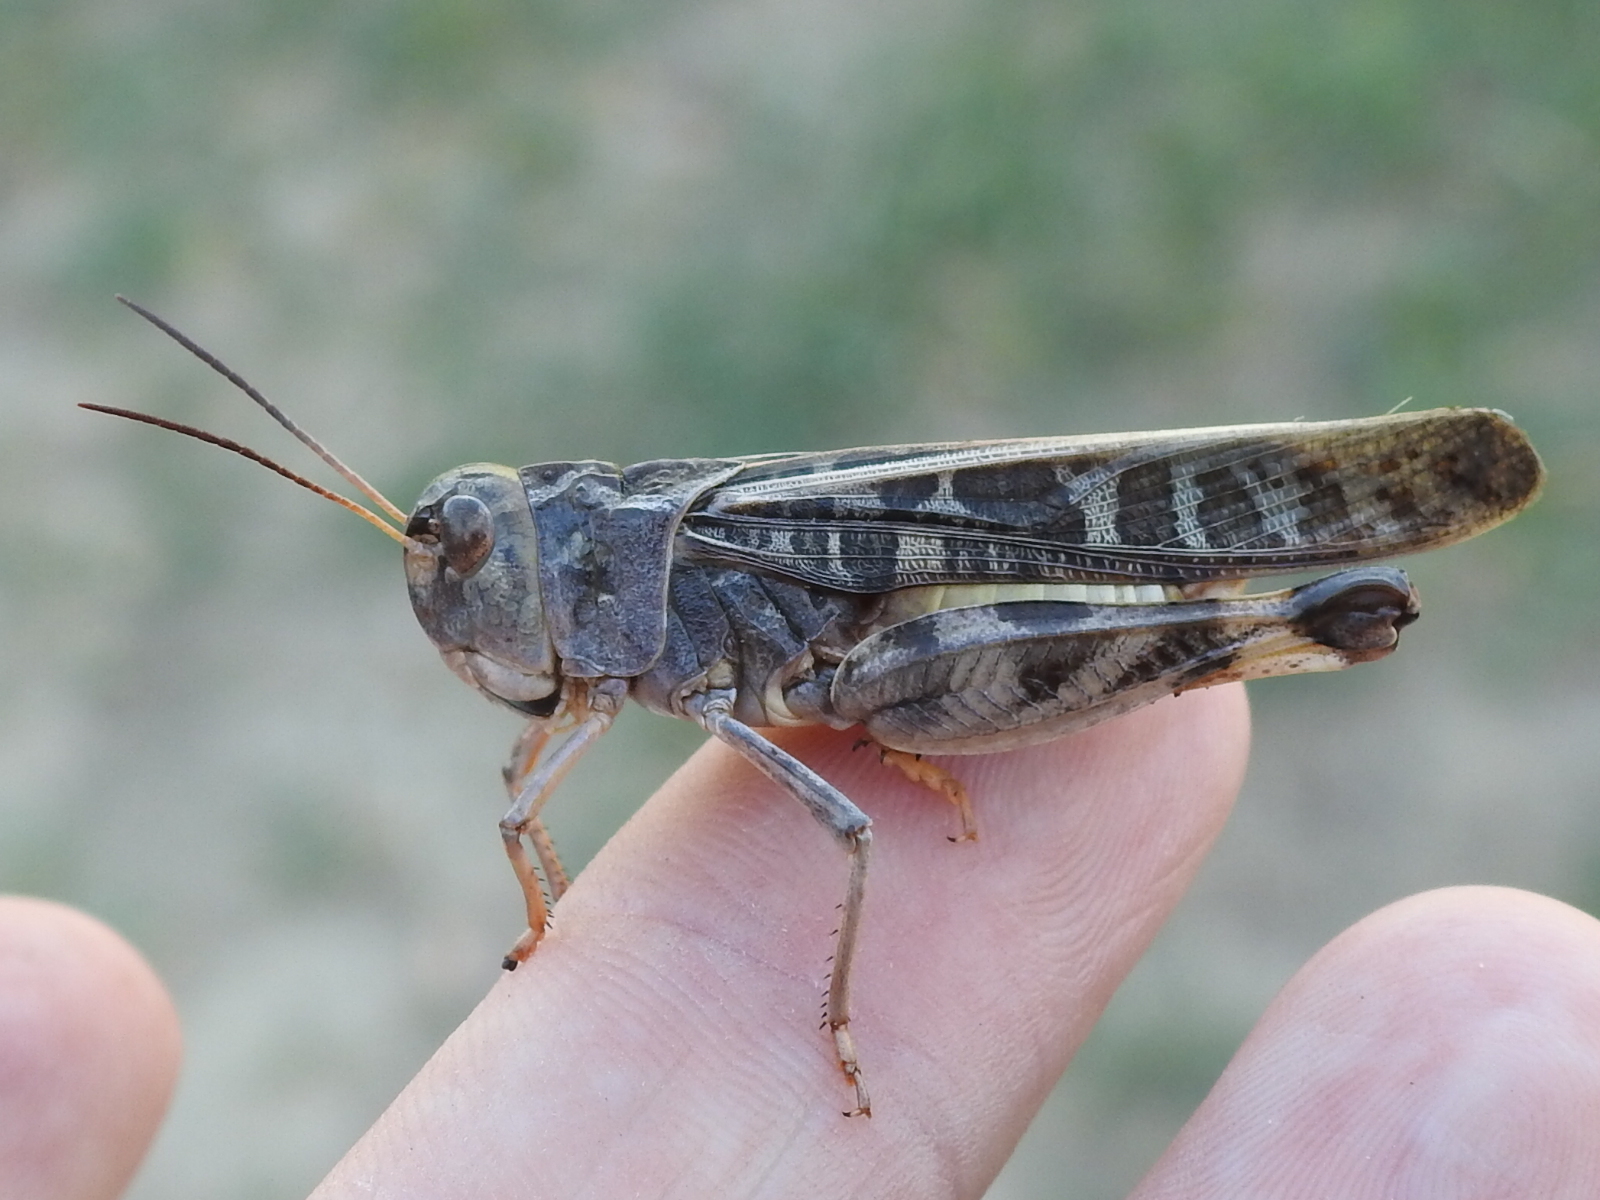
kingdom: Animalia
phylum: Arthropoda
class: Insecta
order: Orthoptera
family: Acrididae
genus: Hippiscus
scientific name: Hippiscus ocelote
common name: Wrinkled grasshopper
